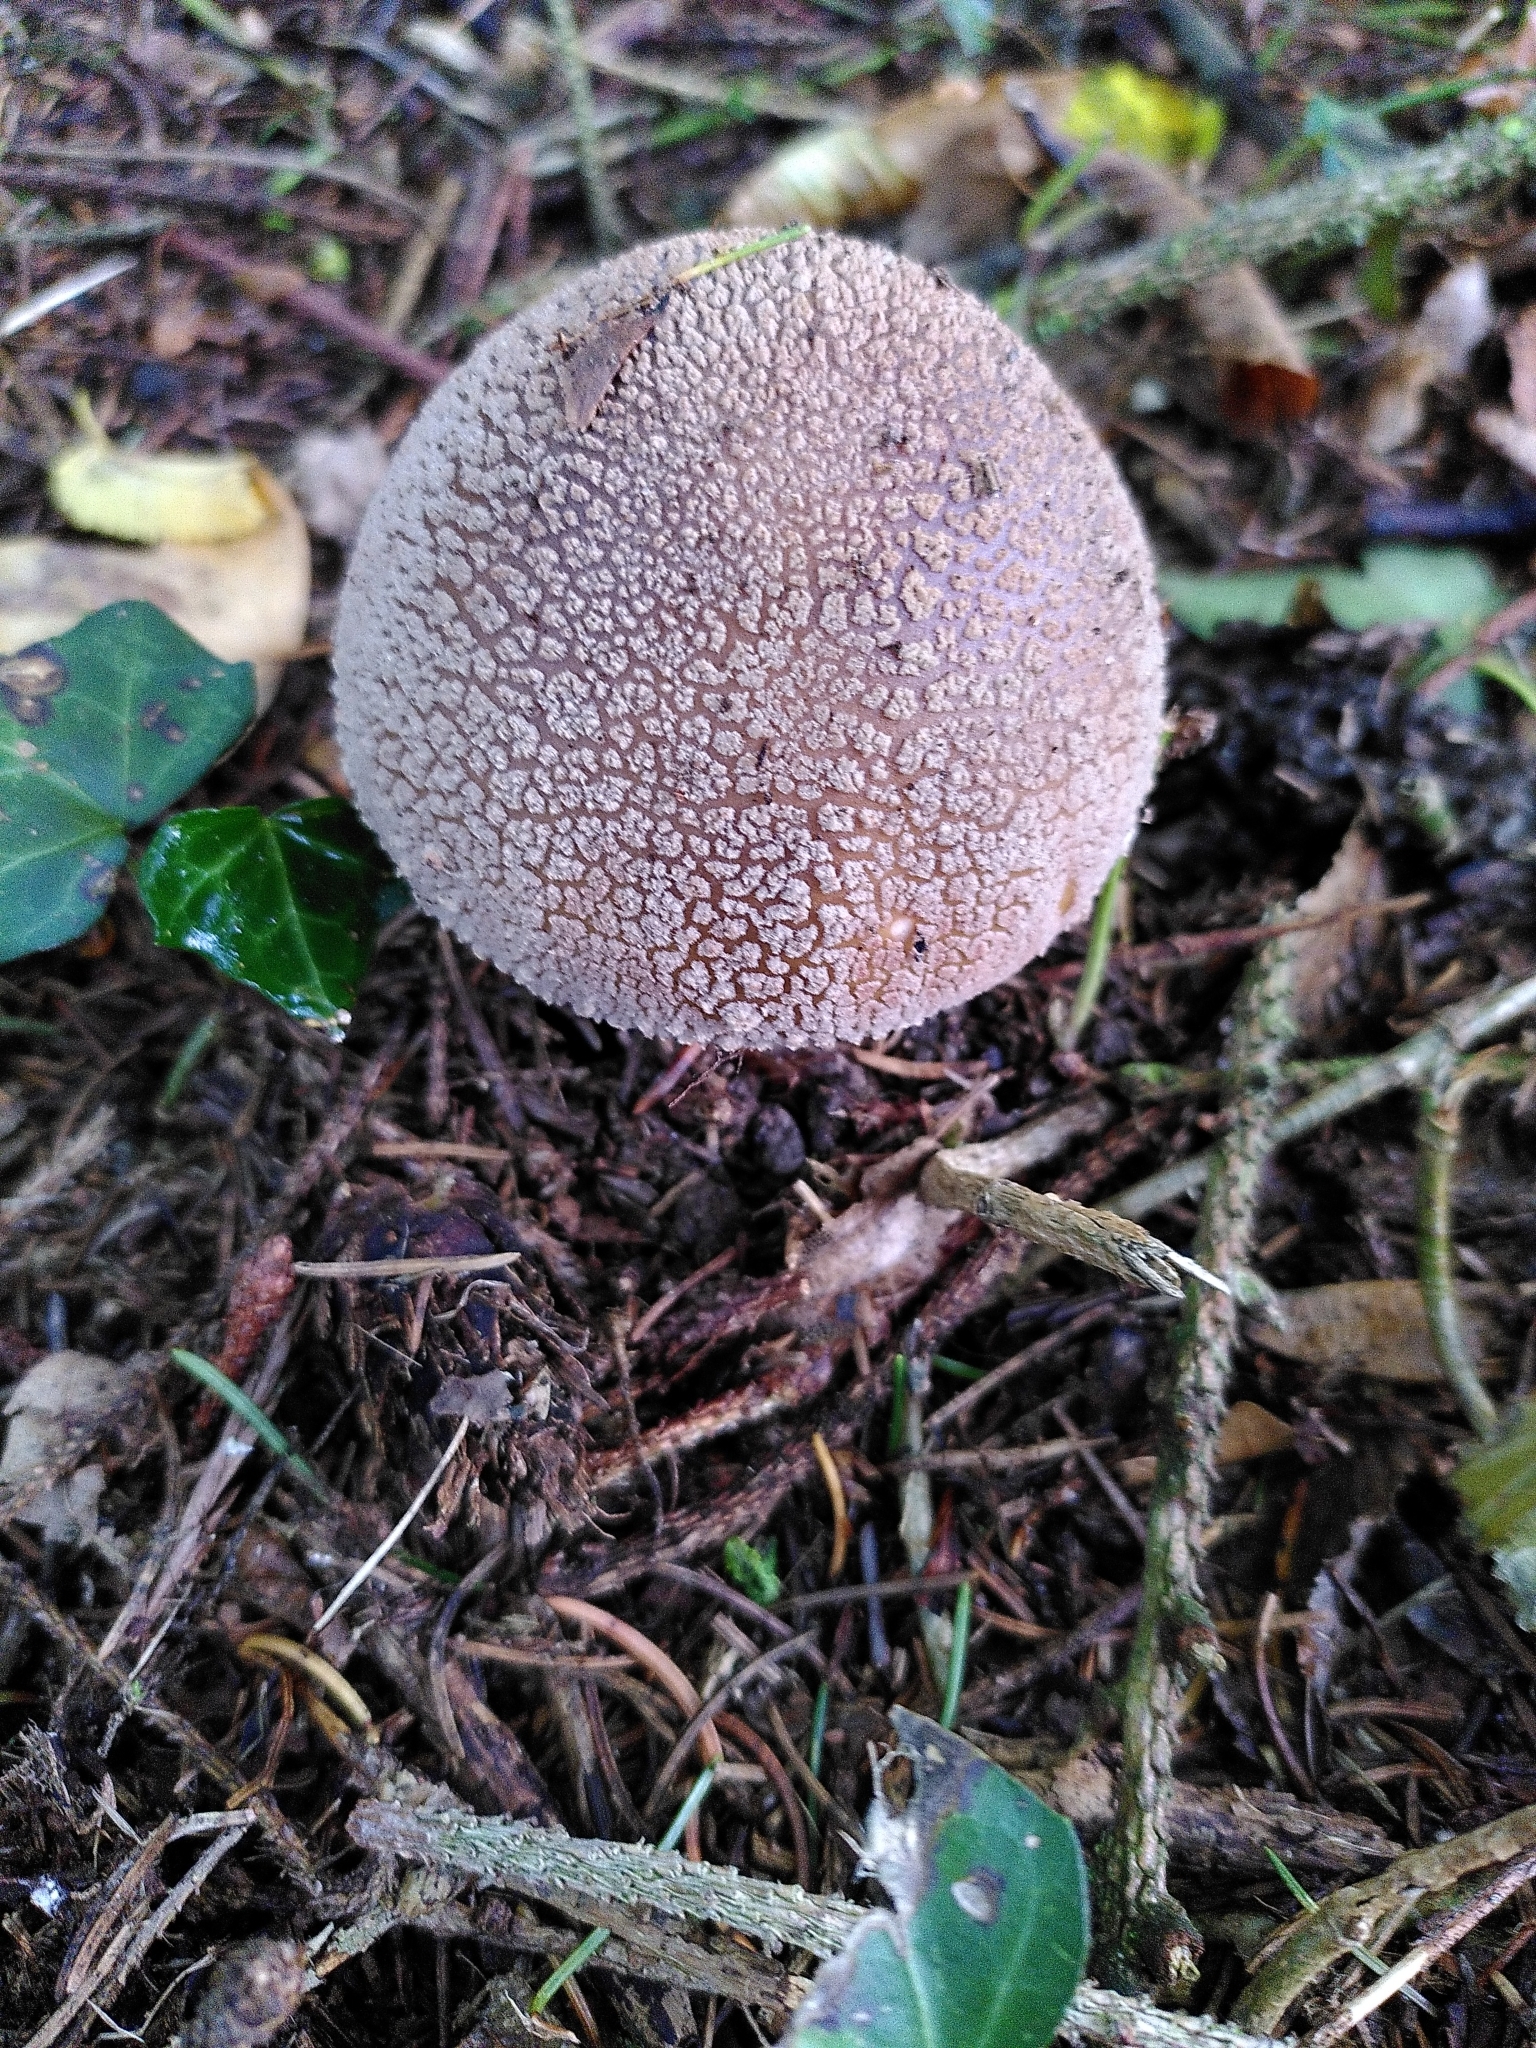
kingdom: Fungi
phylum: Basidiomycota
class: Agaricomycetes
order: Agaricales
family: Amanitaceae
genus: Amanita
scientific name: Amanita rubescens
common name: Blusher
